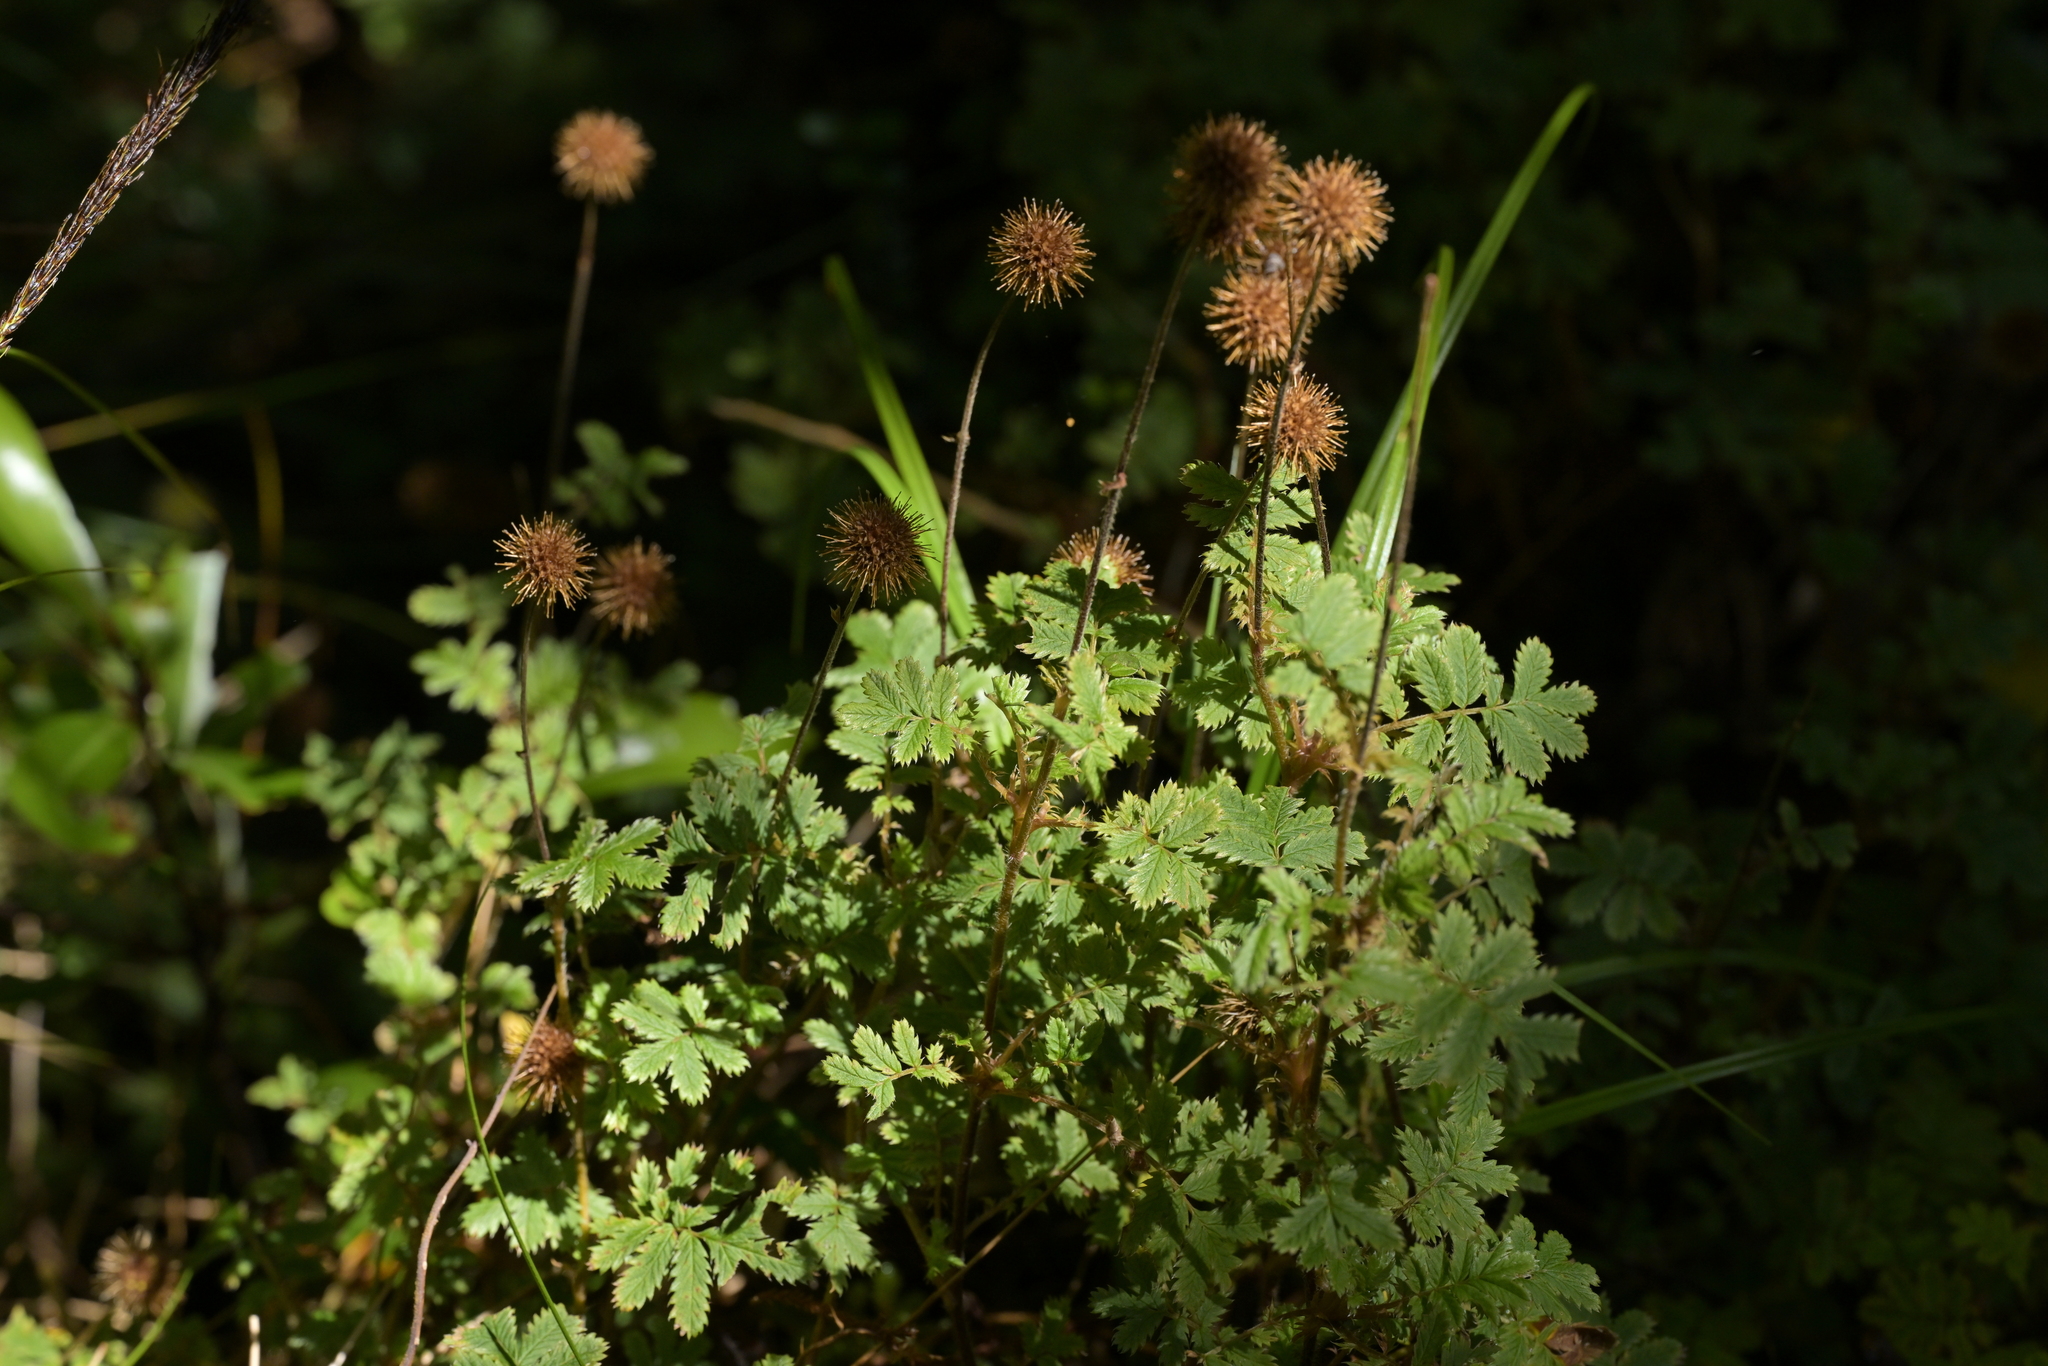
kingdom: Plantae
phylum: Tracheophyta
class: Magnoliopsida
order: Rosales
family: Rosaceae
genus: Acaena
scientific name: Acaena anserinifolia
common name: Bronze pirri-pirri-bur
